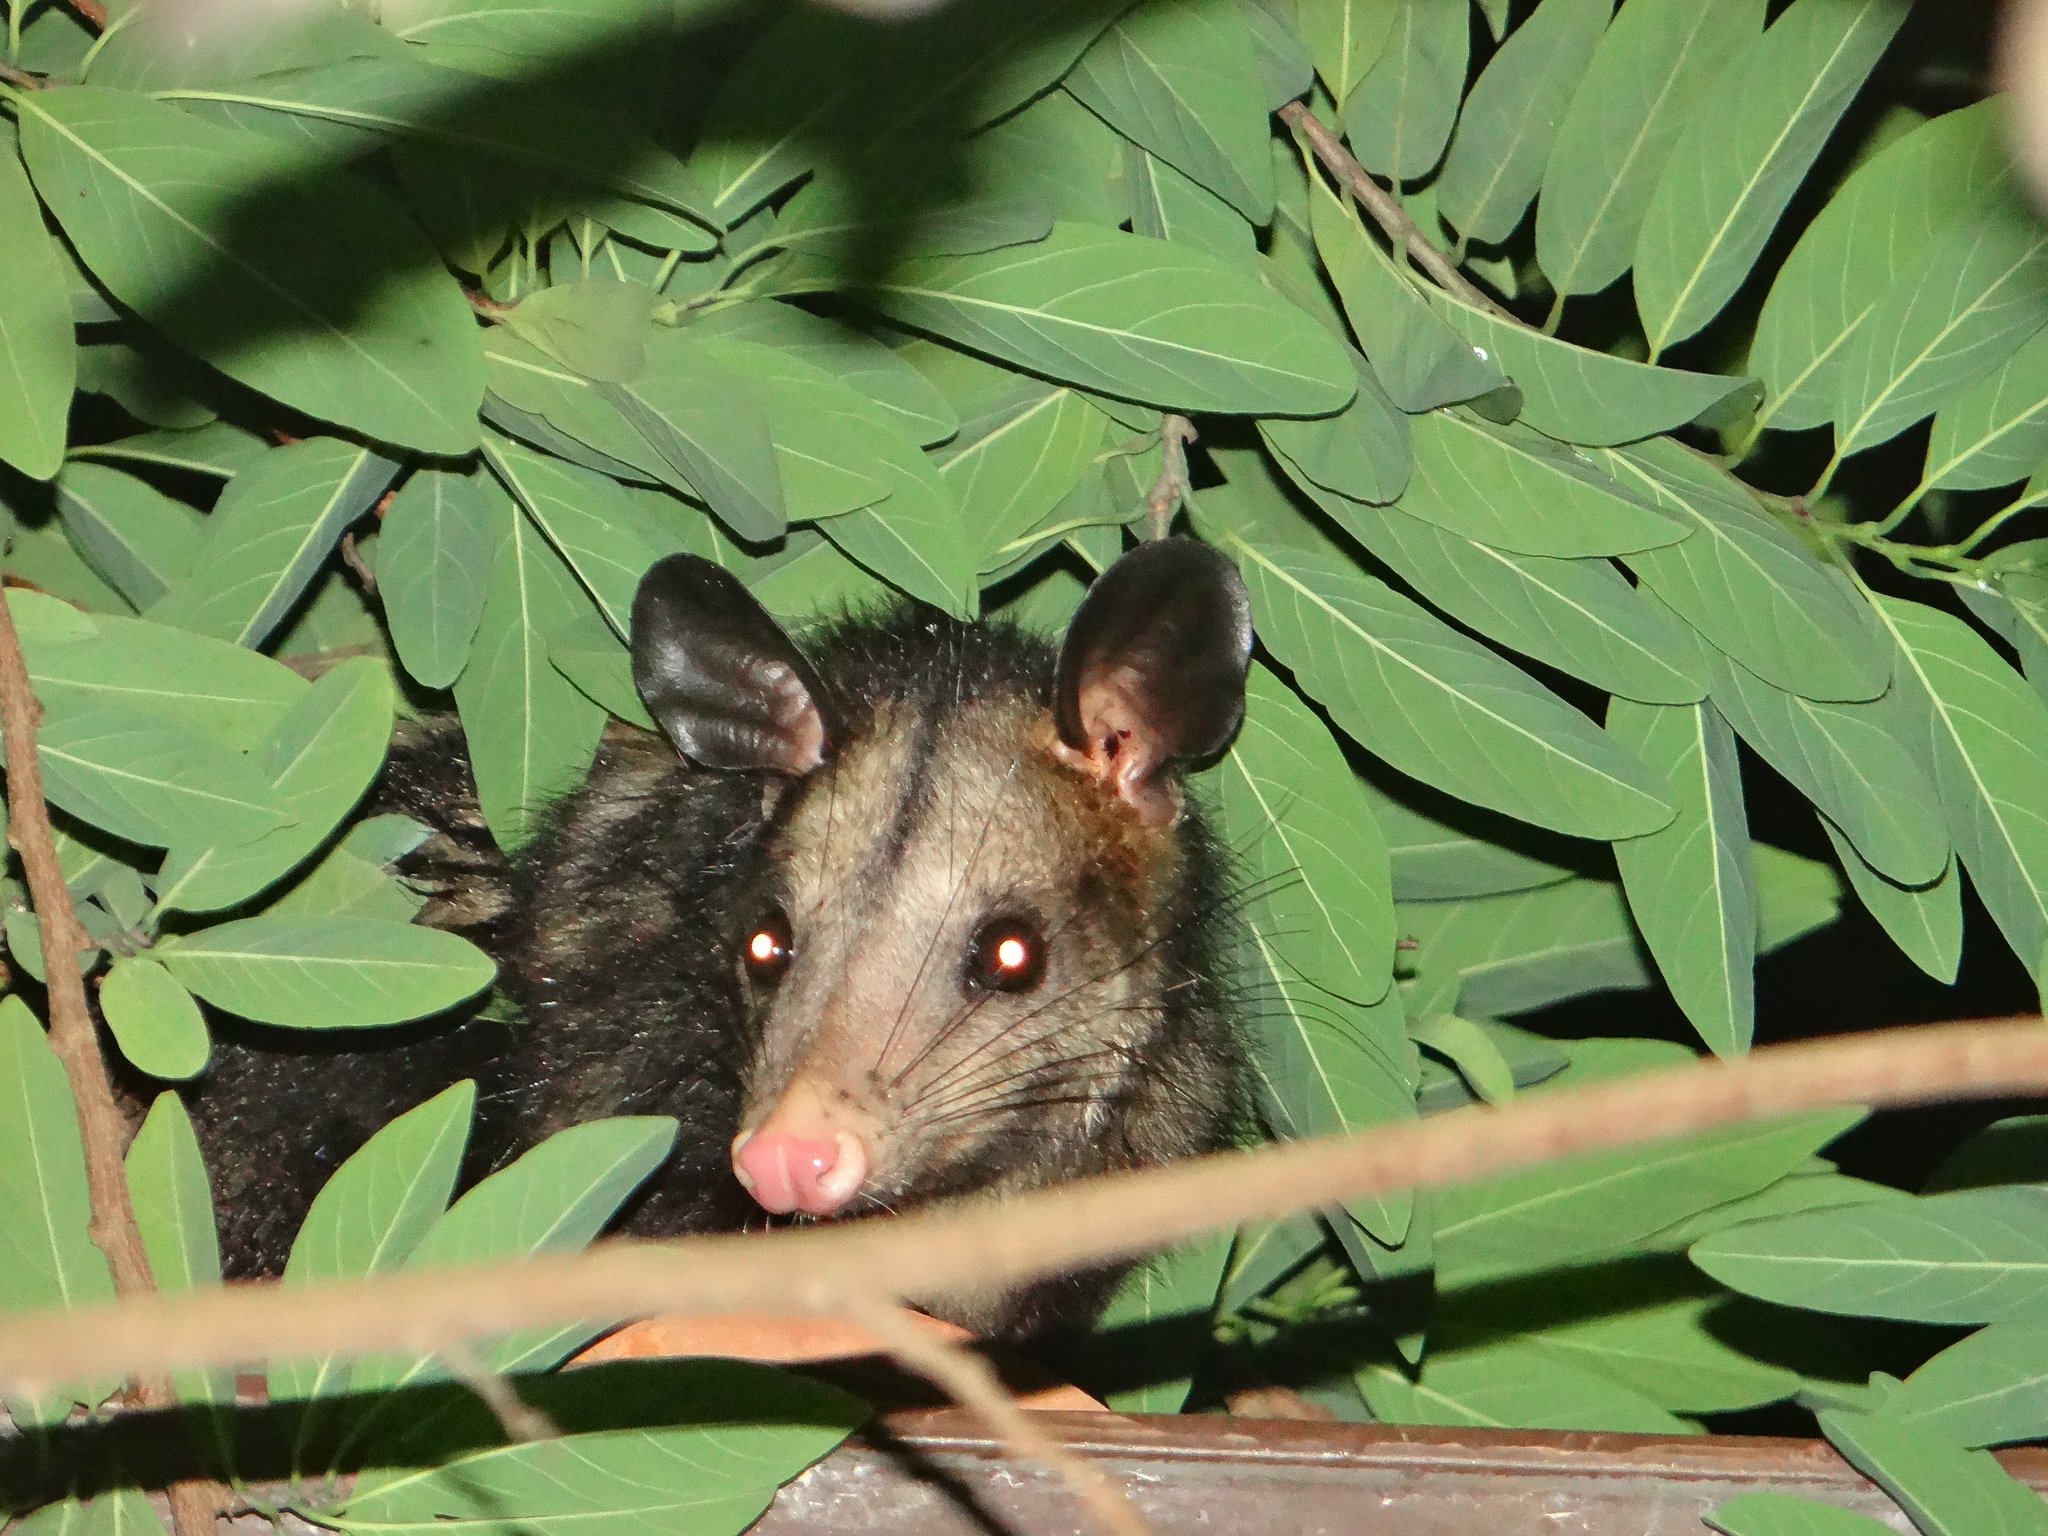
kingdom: Animalia
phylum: Chordata
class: Mammalia
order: Didelphimorphia
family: Didelphidae
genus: Didelphis
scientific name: Didelphis marsupialis
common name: Common opossum
